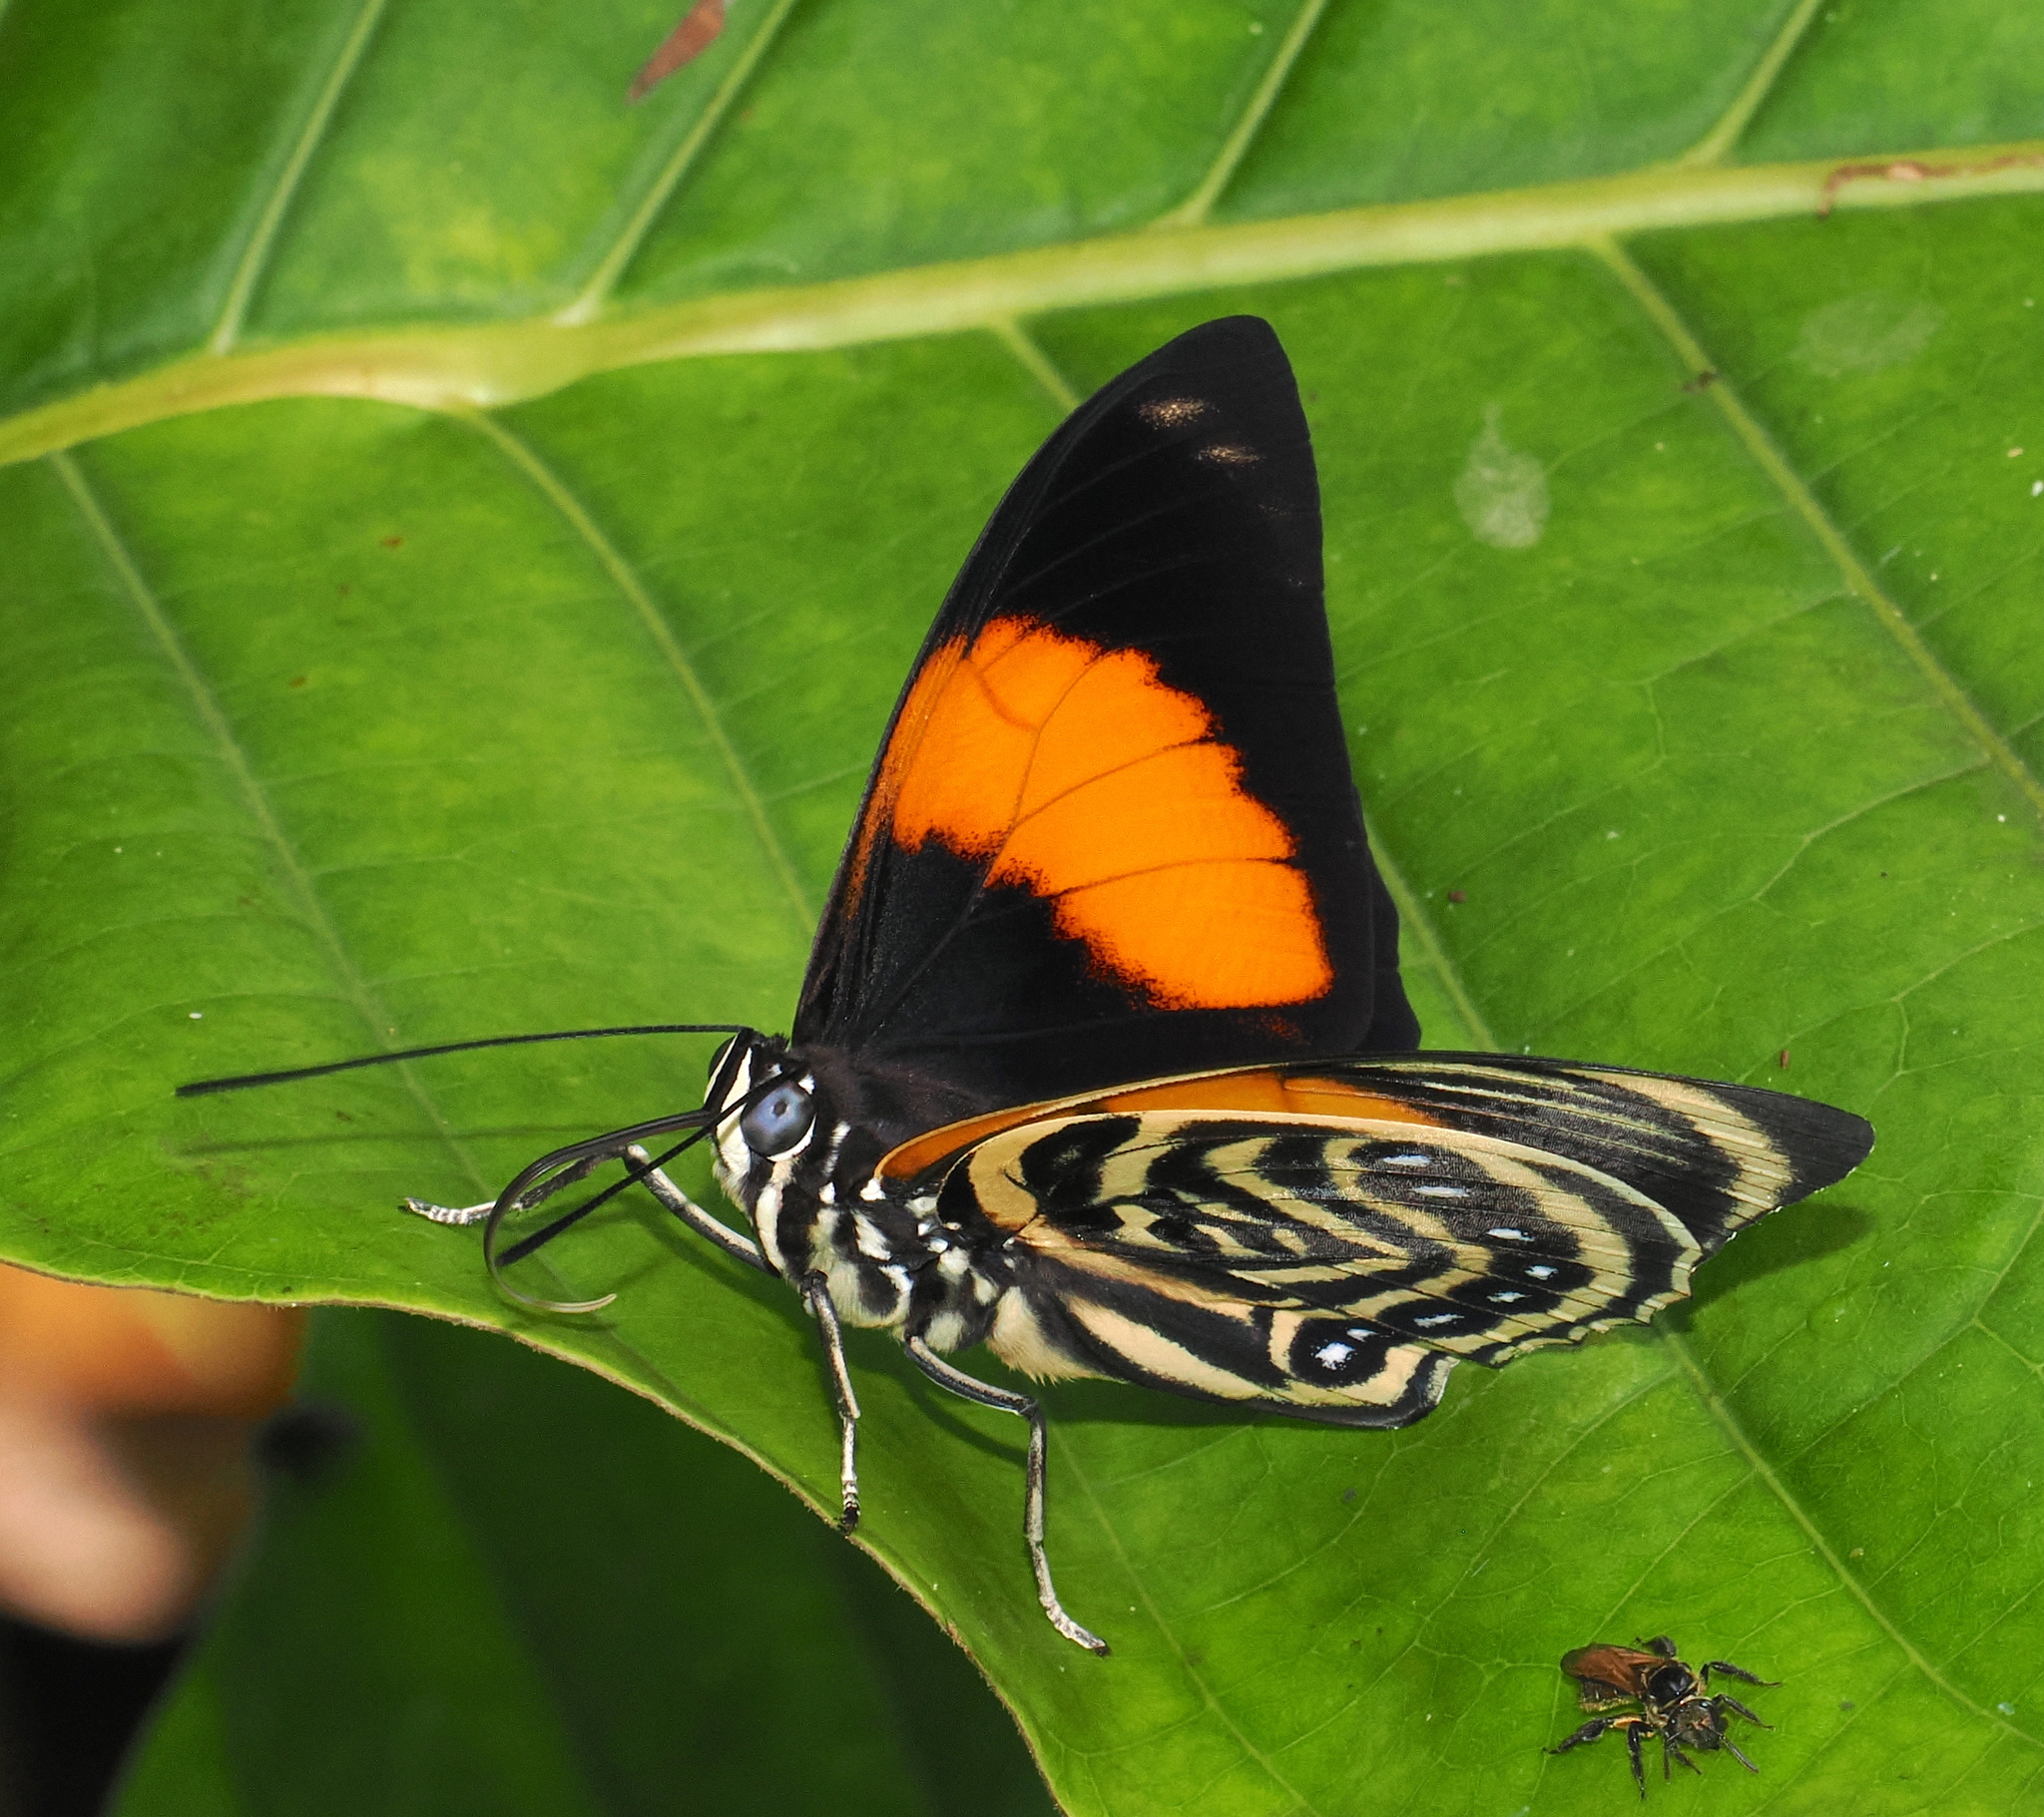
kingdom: Animalia
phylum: Arthropoda
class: Insecta
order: Lepidoptera
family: Nymphalidae
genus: Prepona
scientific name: Prepona amydon
